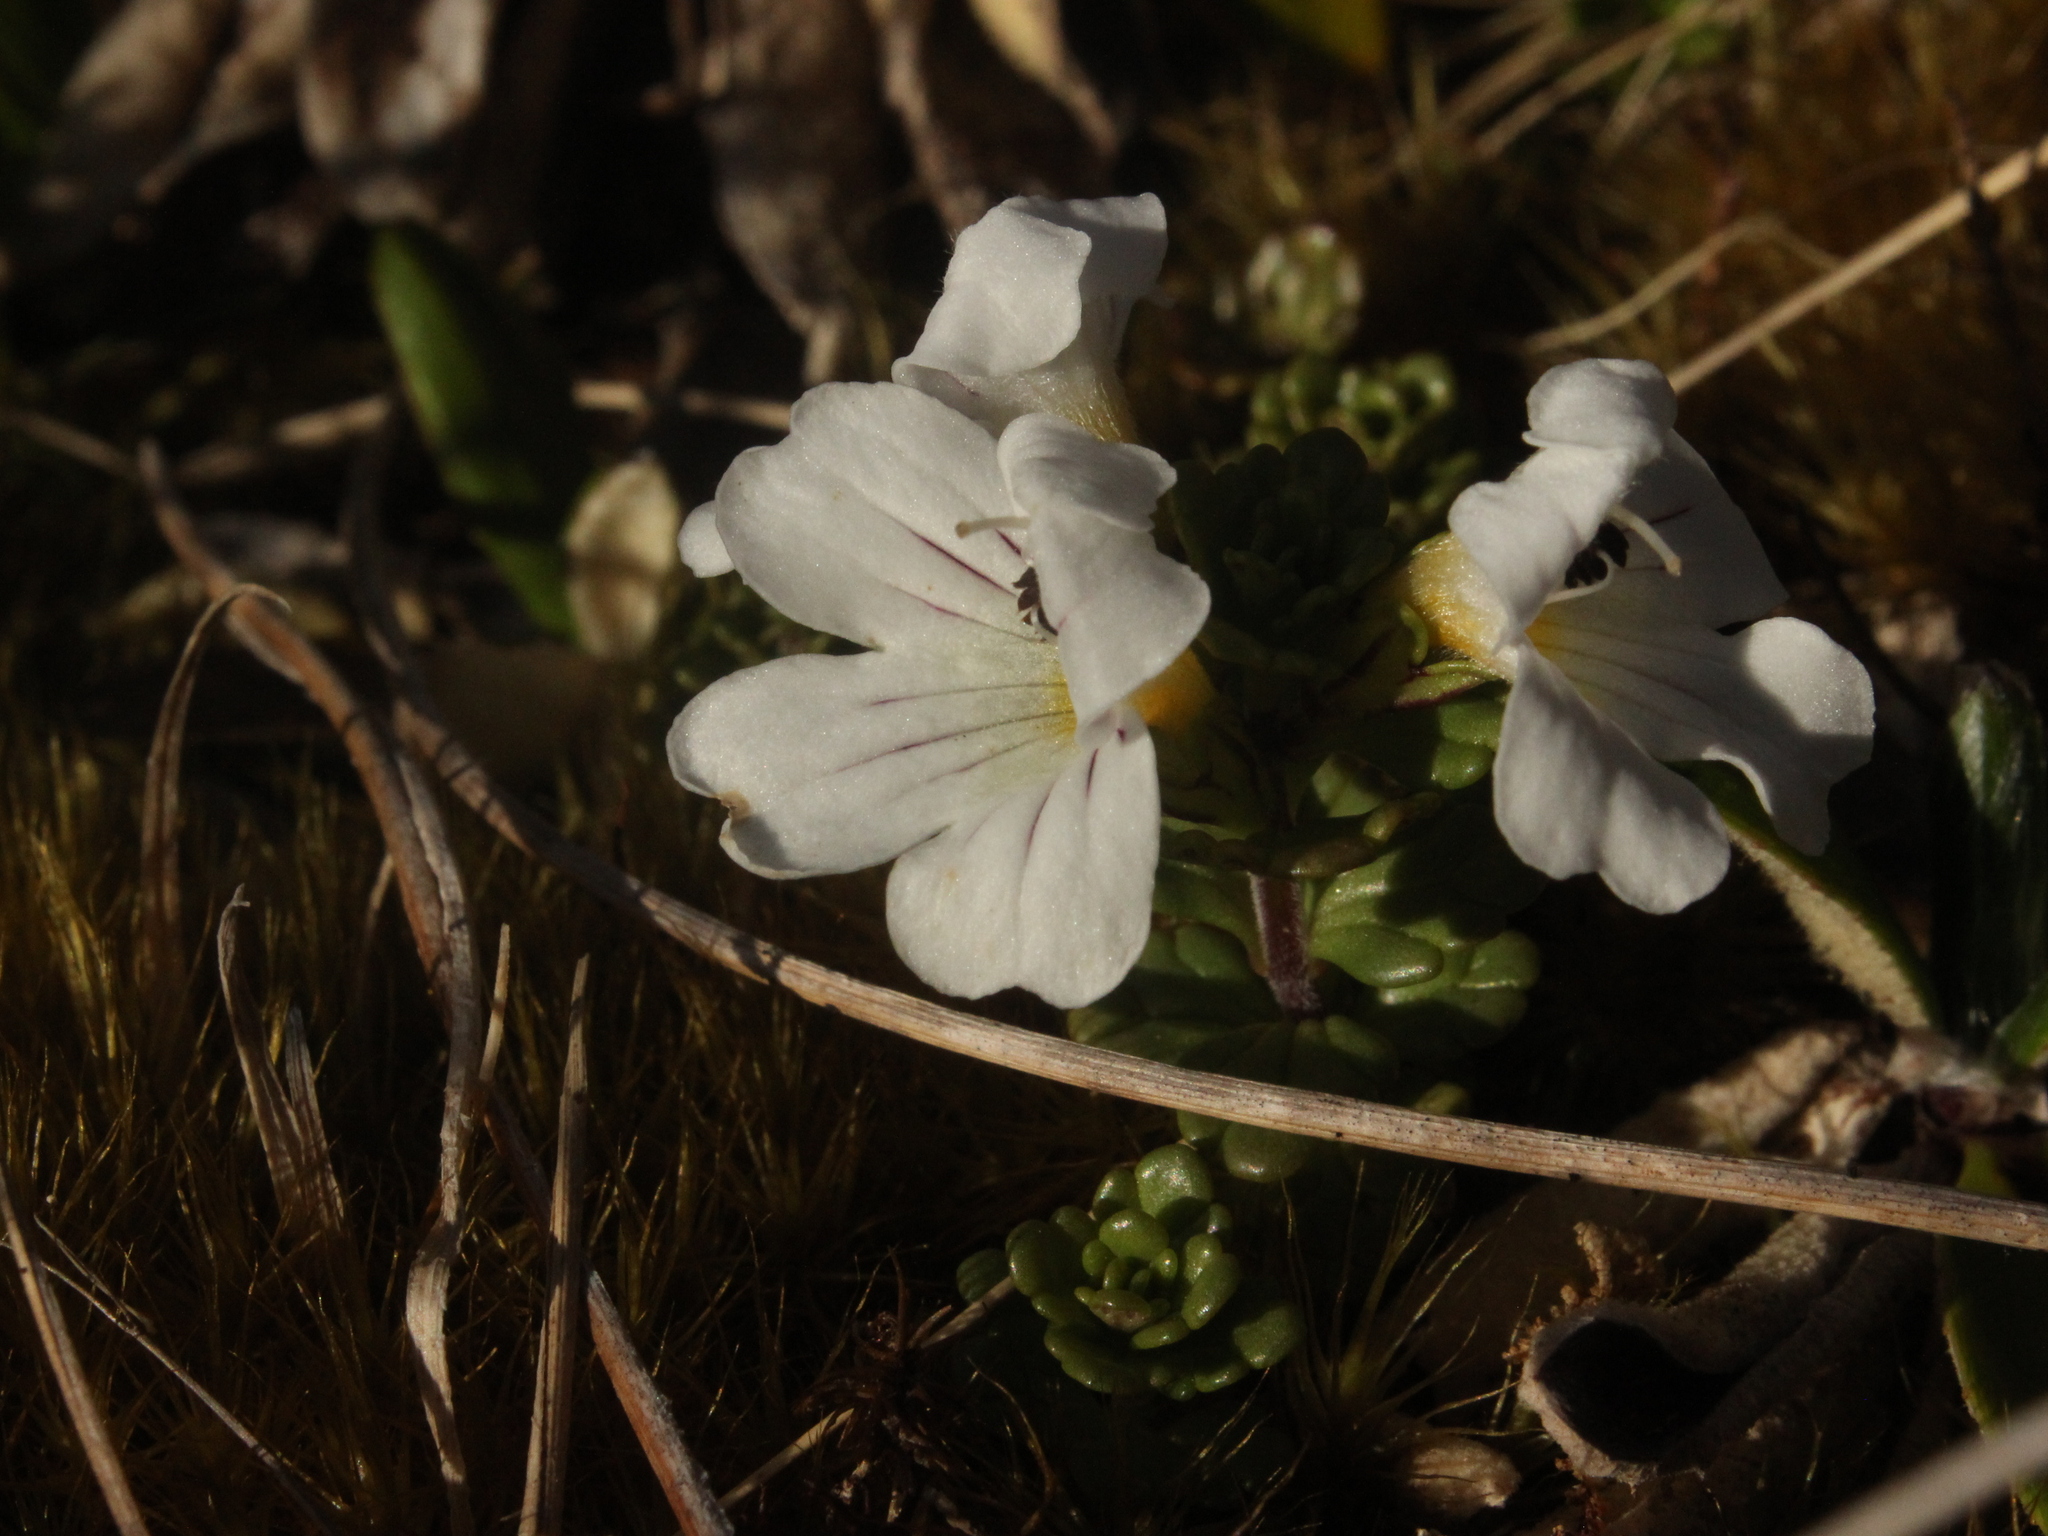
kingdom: Plantae
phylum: Tracheophyta
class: Magnoliopsida
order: Lamiales
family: Orobanchaceae
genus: Euphrasia
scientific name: Euphrasia drucei
